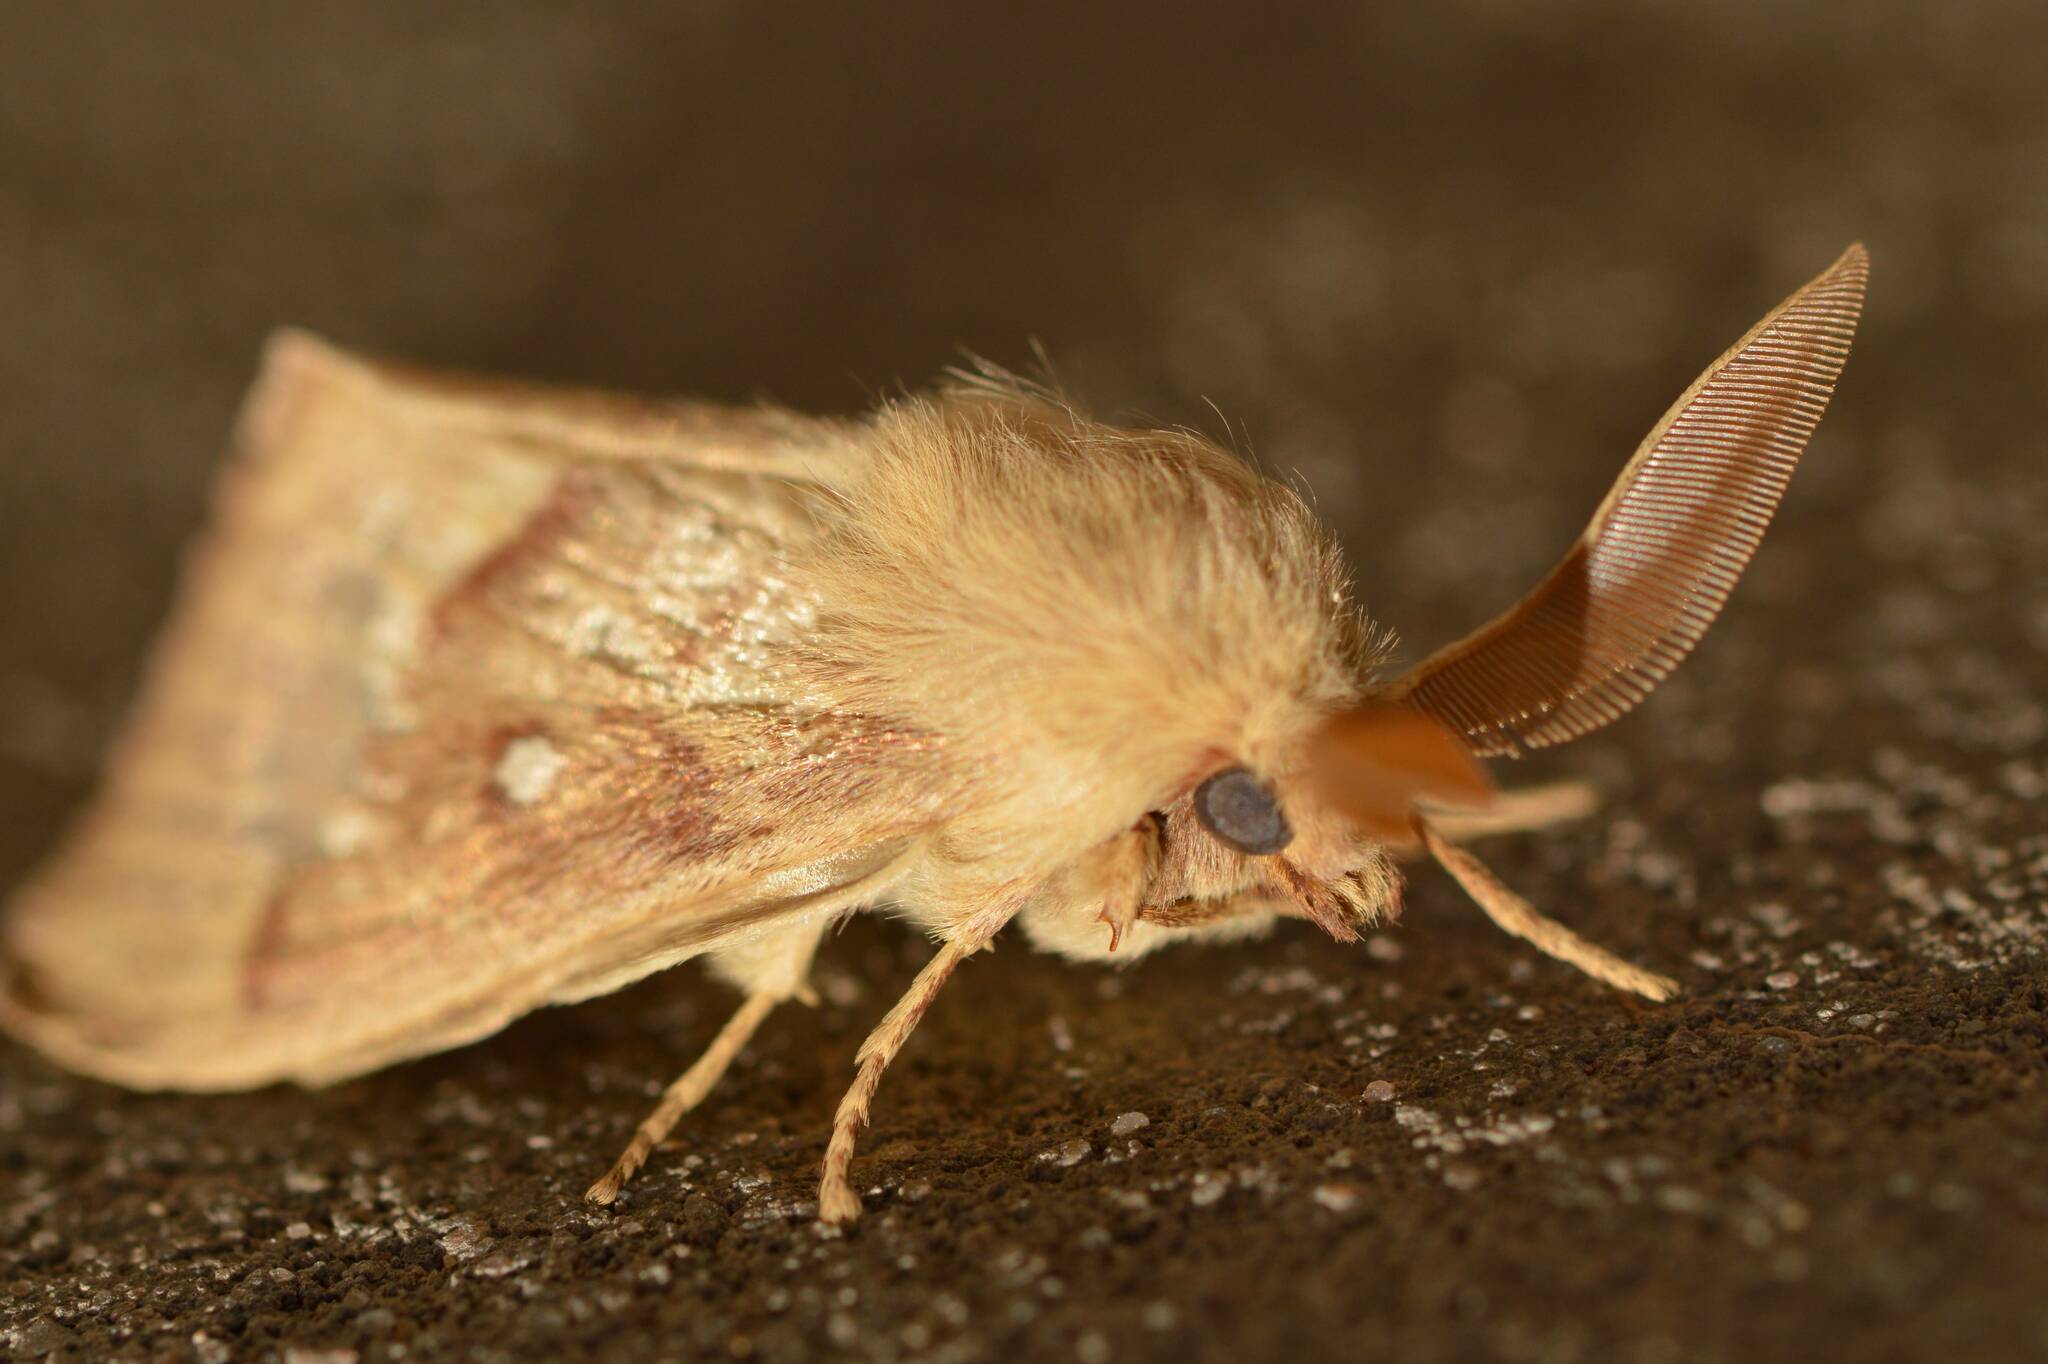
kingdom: Animalia
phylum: Arthropoda
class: Insecta
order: Lepidoptera
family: Lasiocampidae
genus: Lasiocampa
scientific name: Lasiocampa trifolii
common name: Grass eggar
